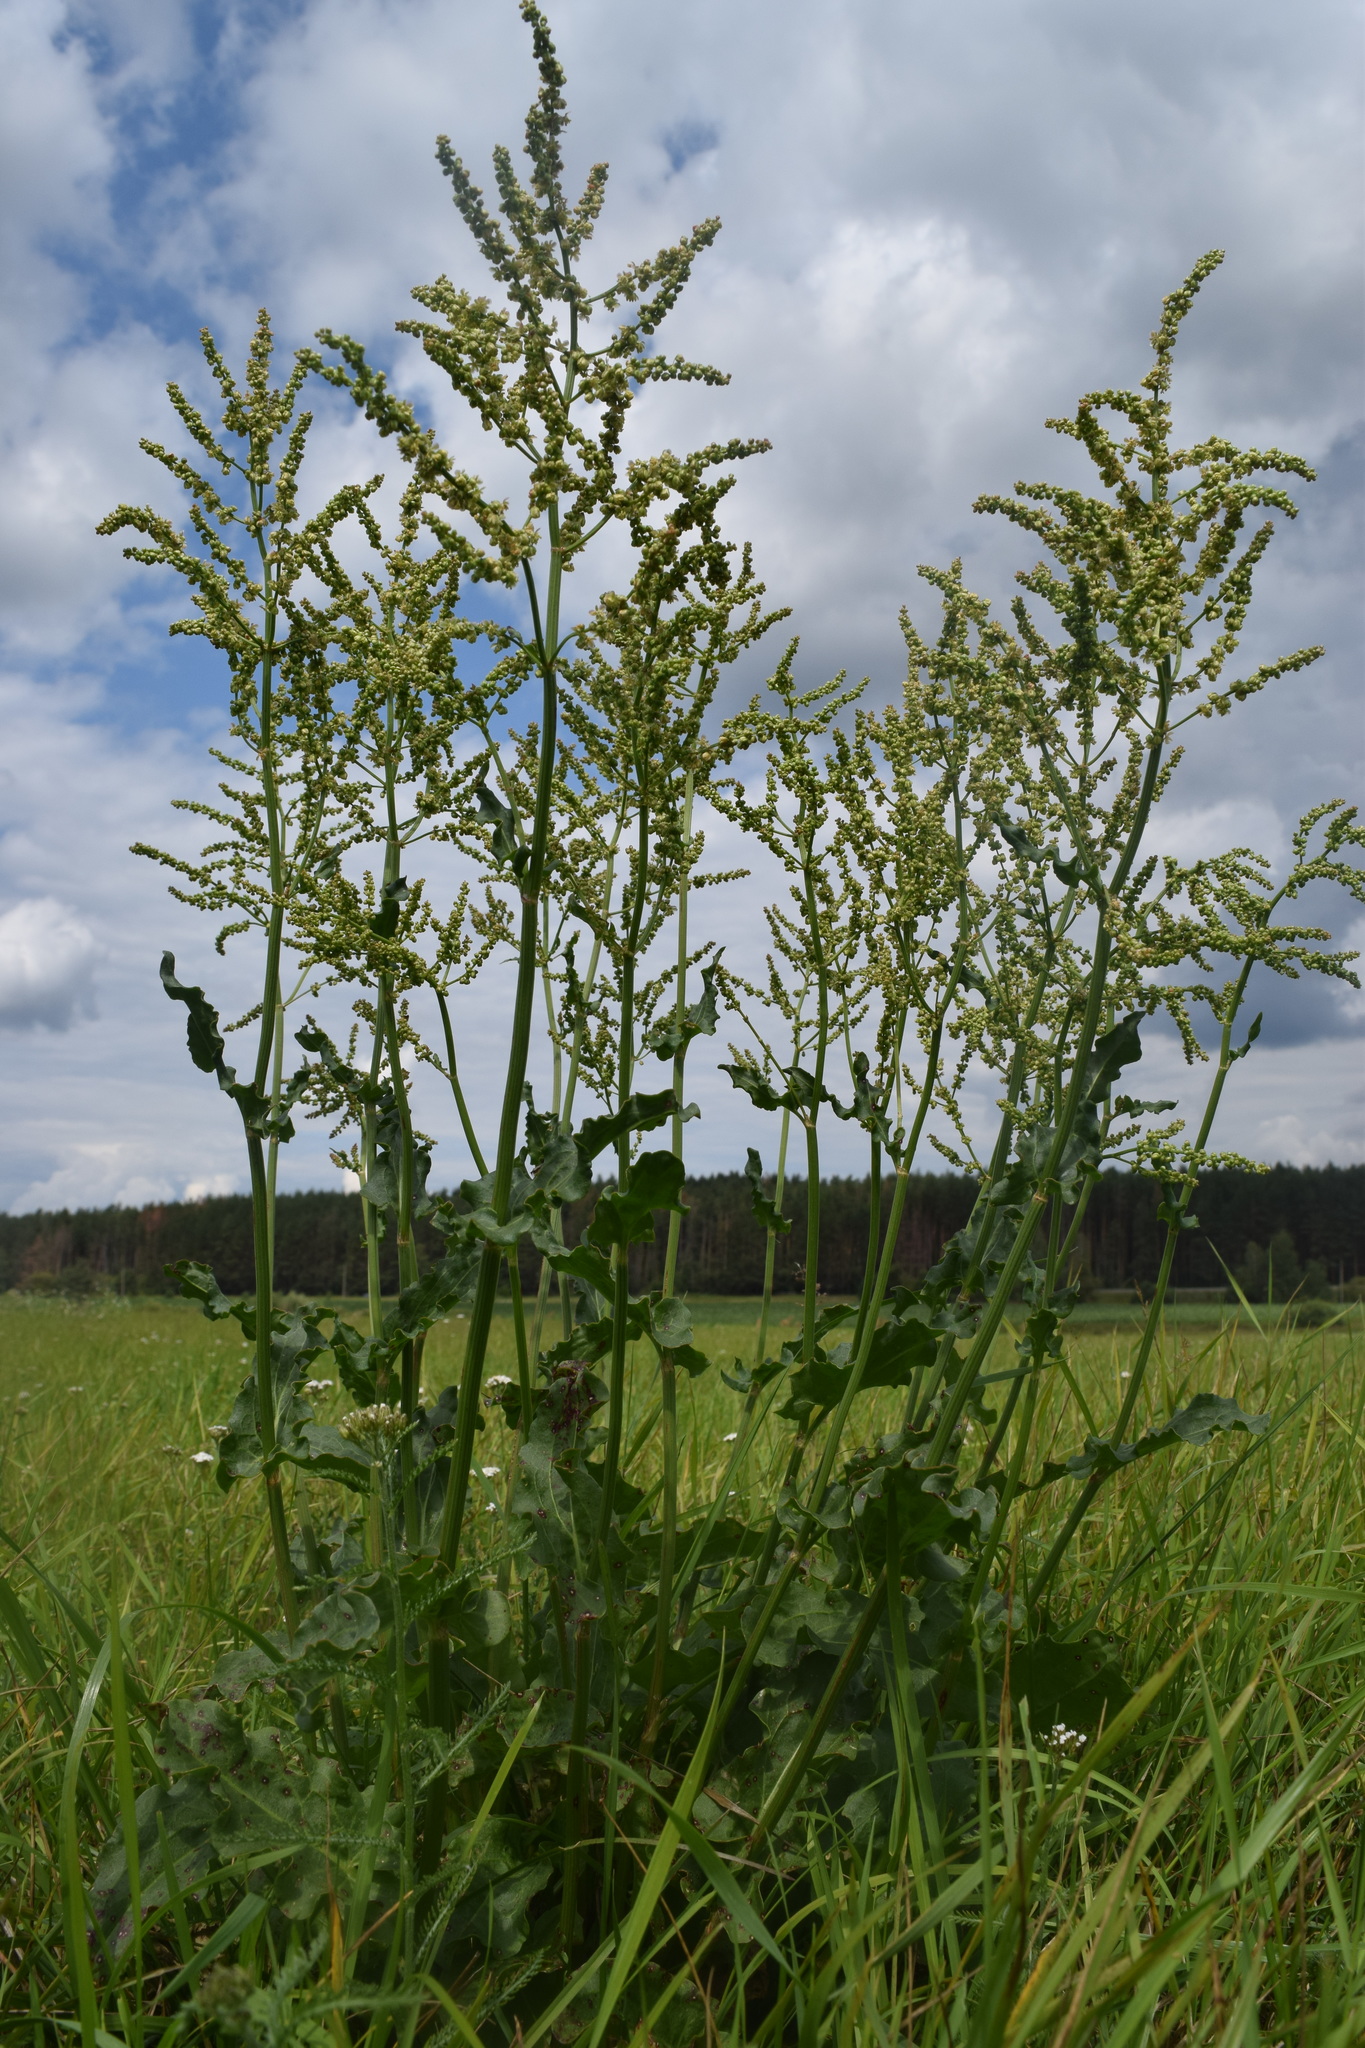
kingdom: Plantae
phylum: Tracheophyta
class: Magnoliopsida
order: Caryophyllales
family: Polygonaceae
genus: Rumex
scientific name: Rumex thyrsiflorus
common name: Garden sorrel
